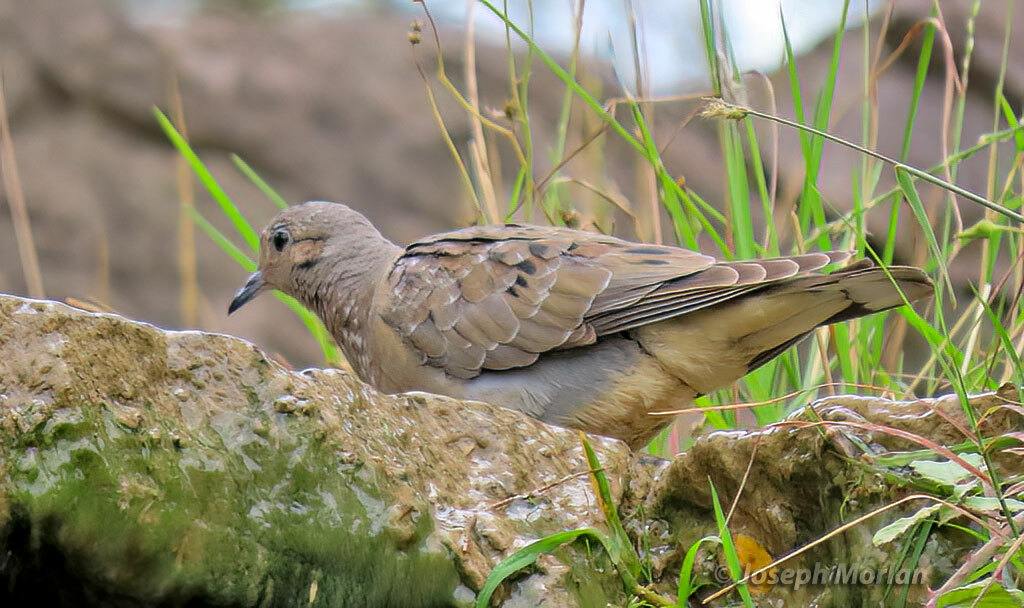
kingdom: Animalia
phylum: Chordata
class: Aves
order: Columbiformes
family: Columbidae
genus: Zenaida
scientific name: Zenaida auriculata
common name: Eared dove
